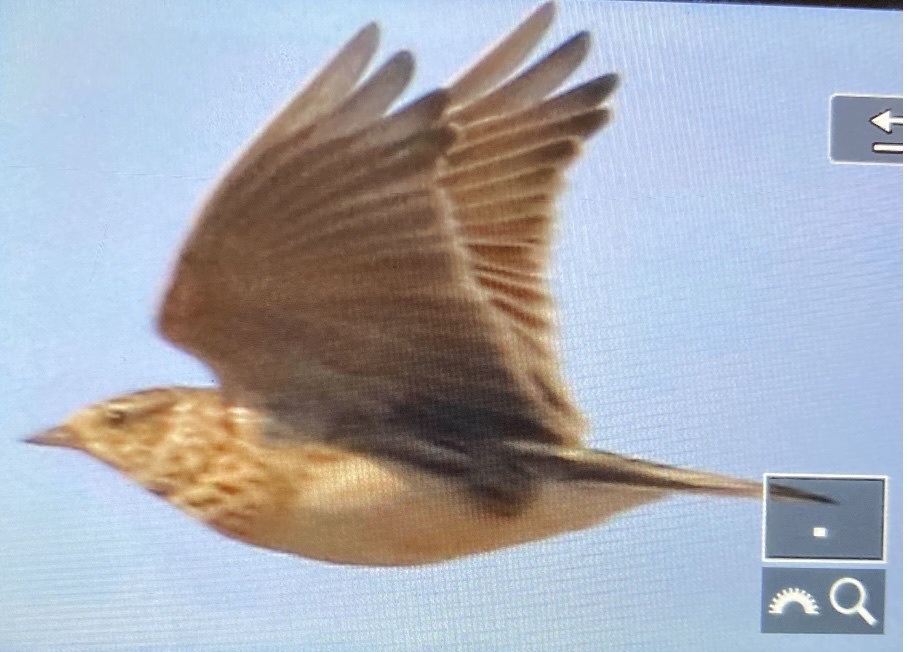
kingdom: Animalia
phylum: Chordata
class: Aves
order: Passeriformes
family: Alaudidae
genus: Alauda
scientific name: Alauda arvensis
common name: Eurasian skylark
